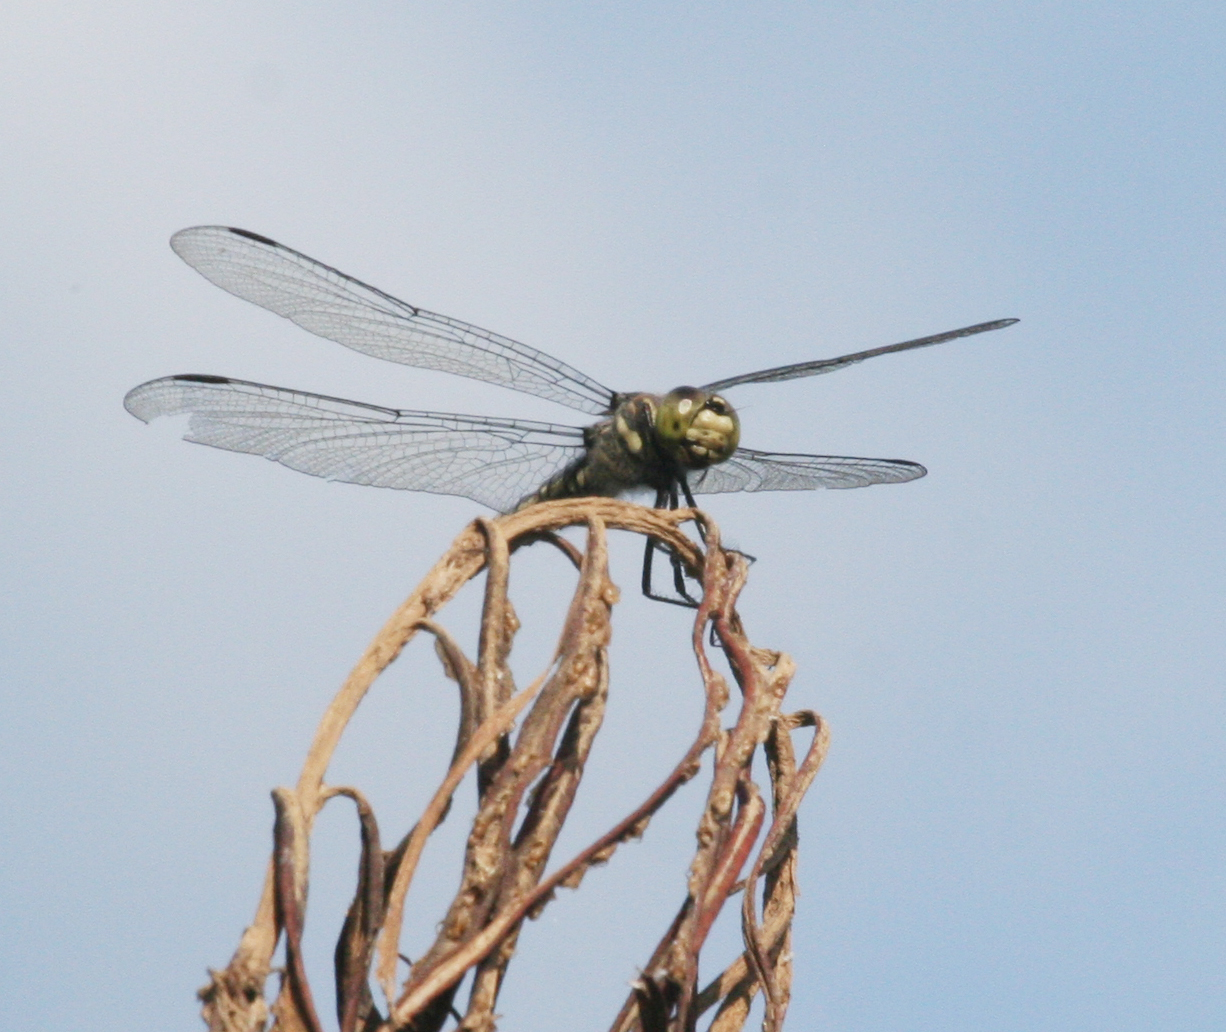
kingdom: Animalia
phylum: Arthropoda
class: Insecta
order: Odonata
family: Libellulidae
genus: Deielia
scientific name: Deielia phaon
